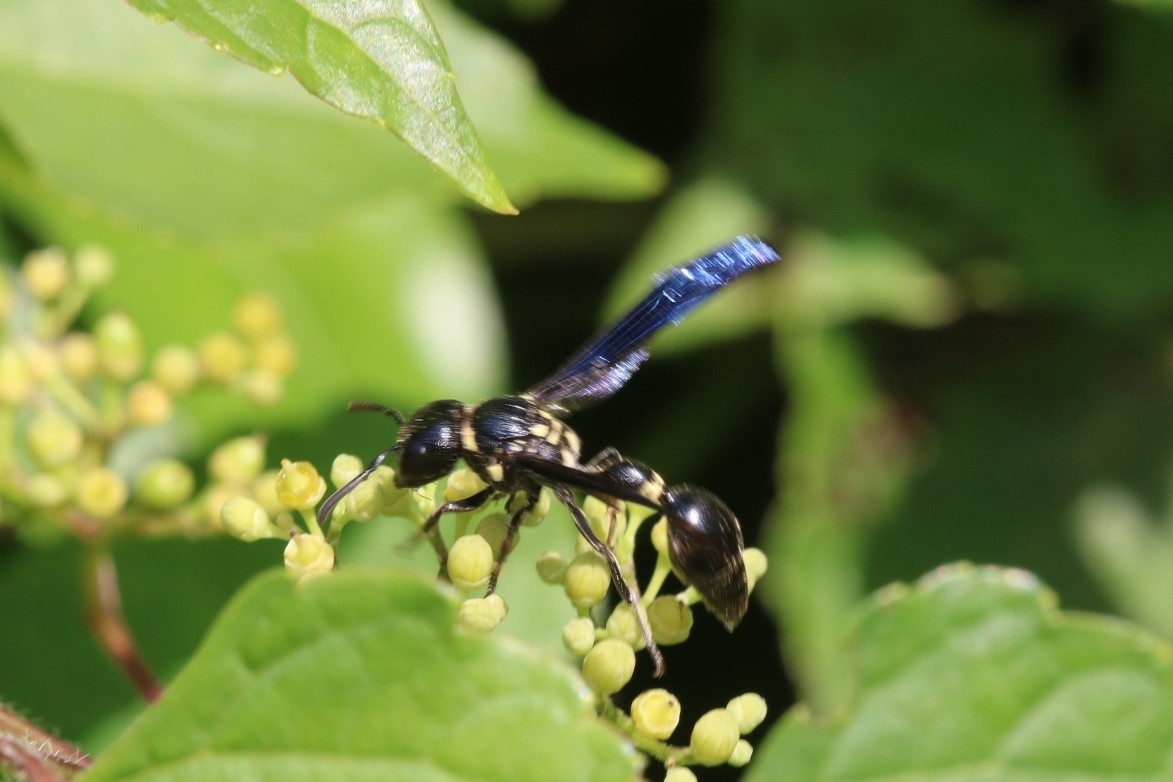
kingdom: Animalia
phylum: Arthropoda
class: Insecta
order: Hymenoptera
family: Eumenidae
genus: Zethus
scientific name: Zethus spinipes
